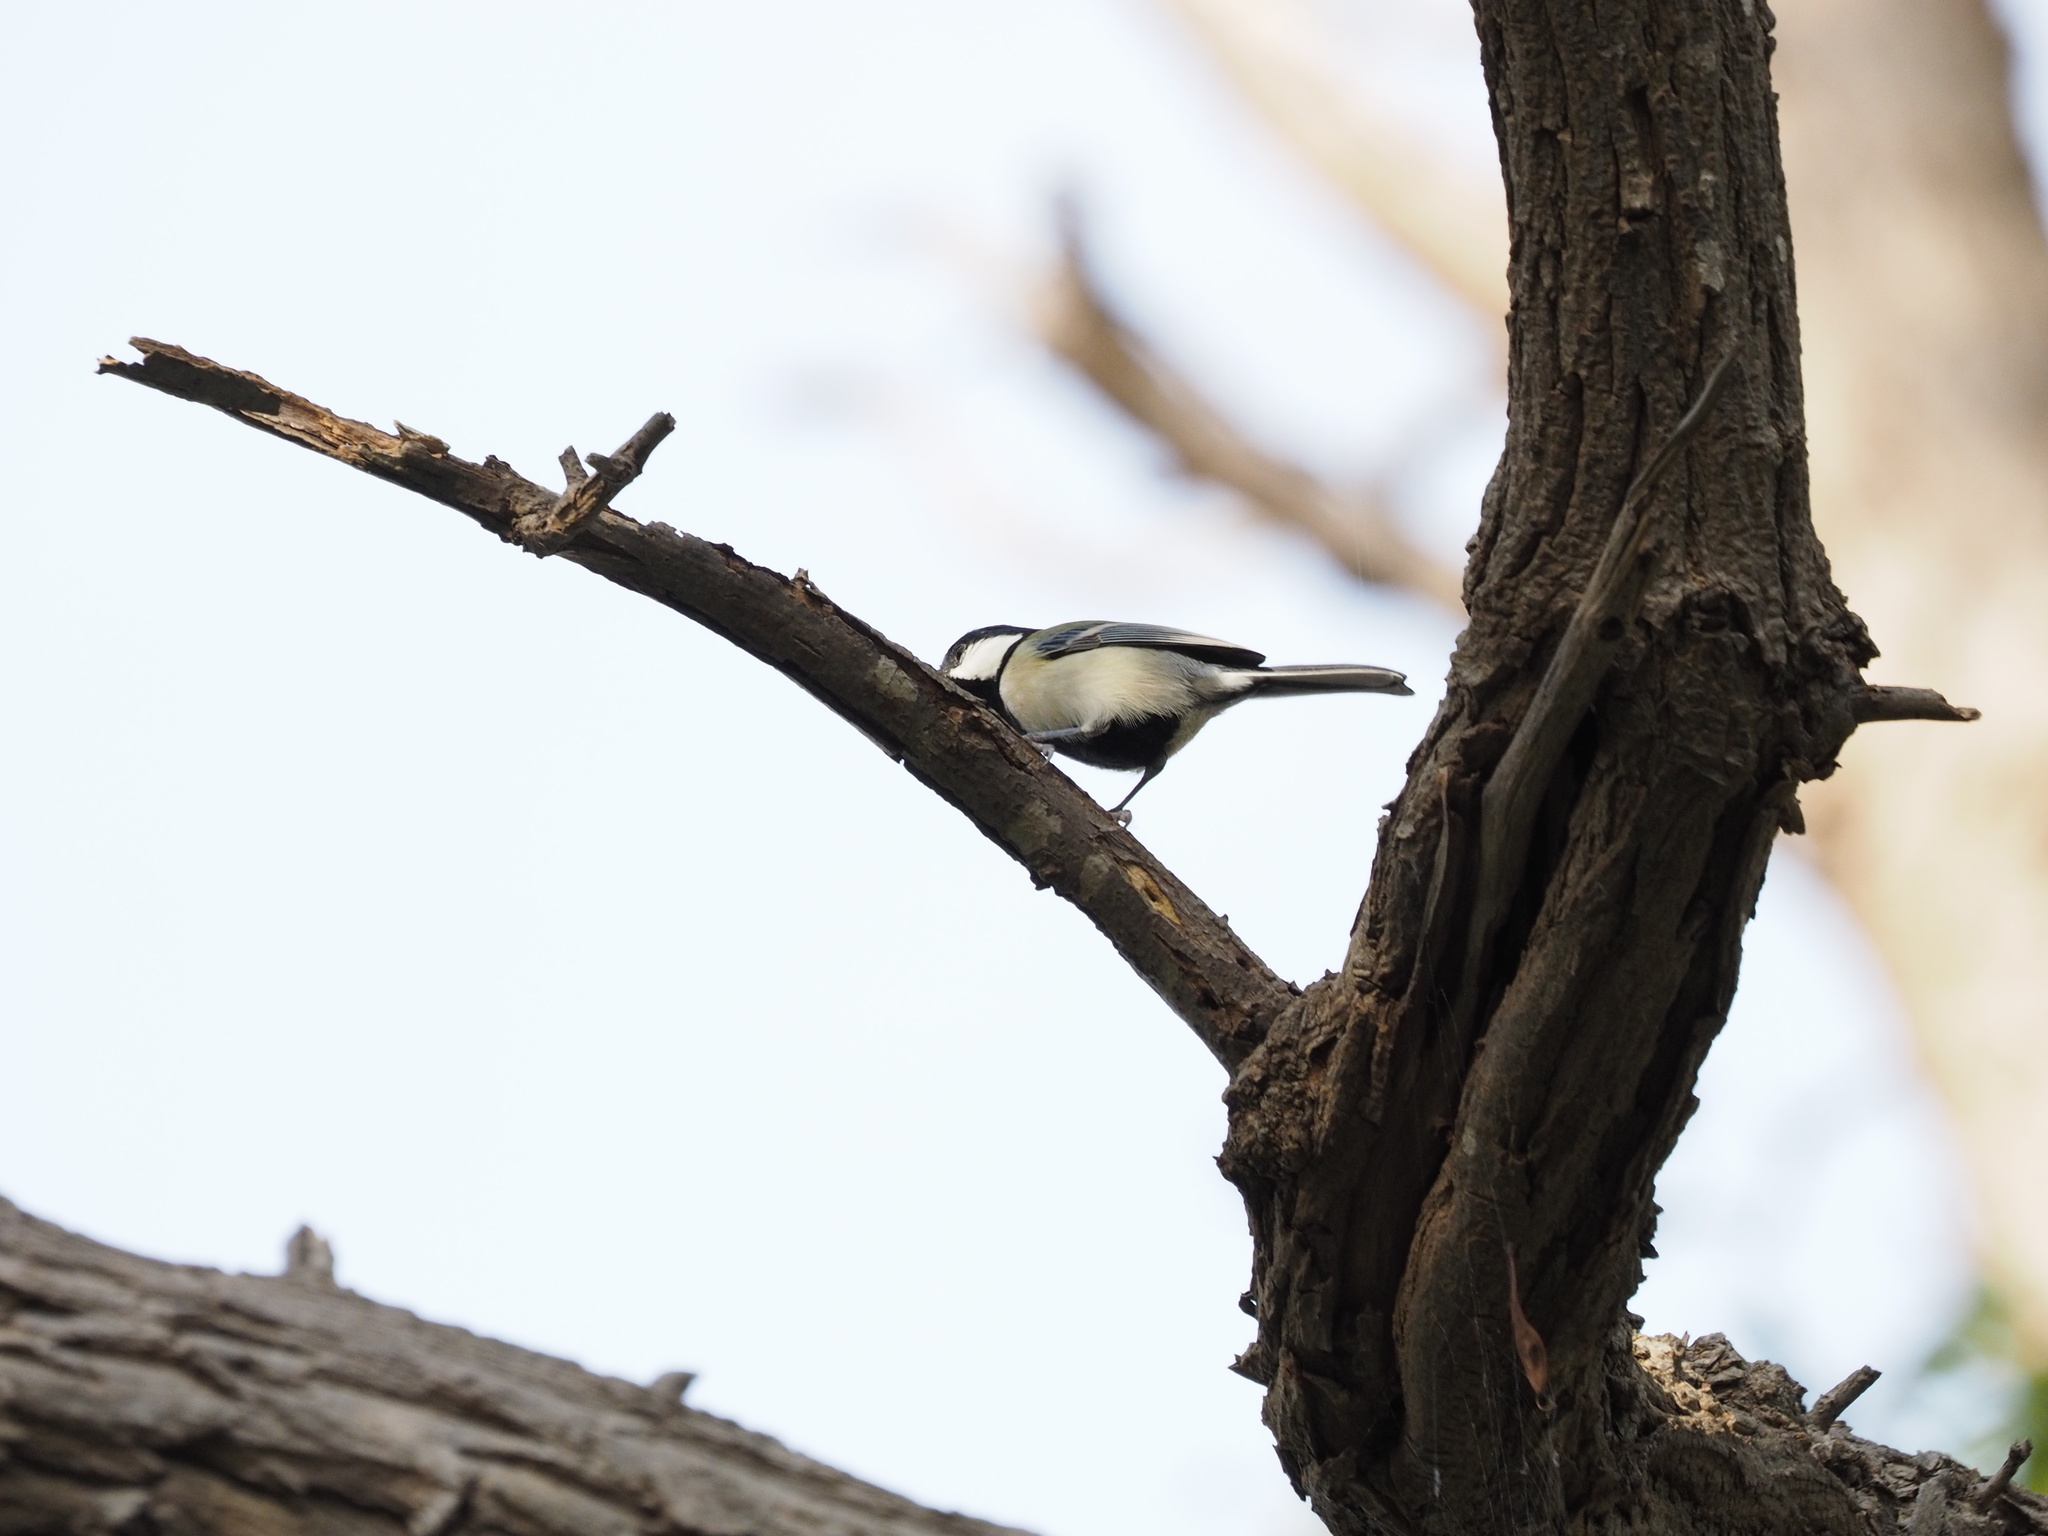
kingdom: Animalia
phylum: Chordata
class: Aves
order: Passeriformes
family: Paridae
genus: Parus
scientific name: Parus minor
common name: Japanese tit
